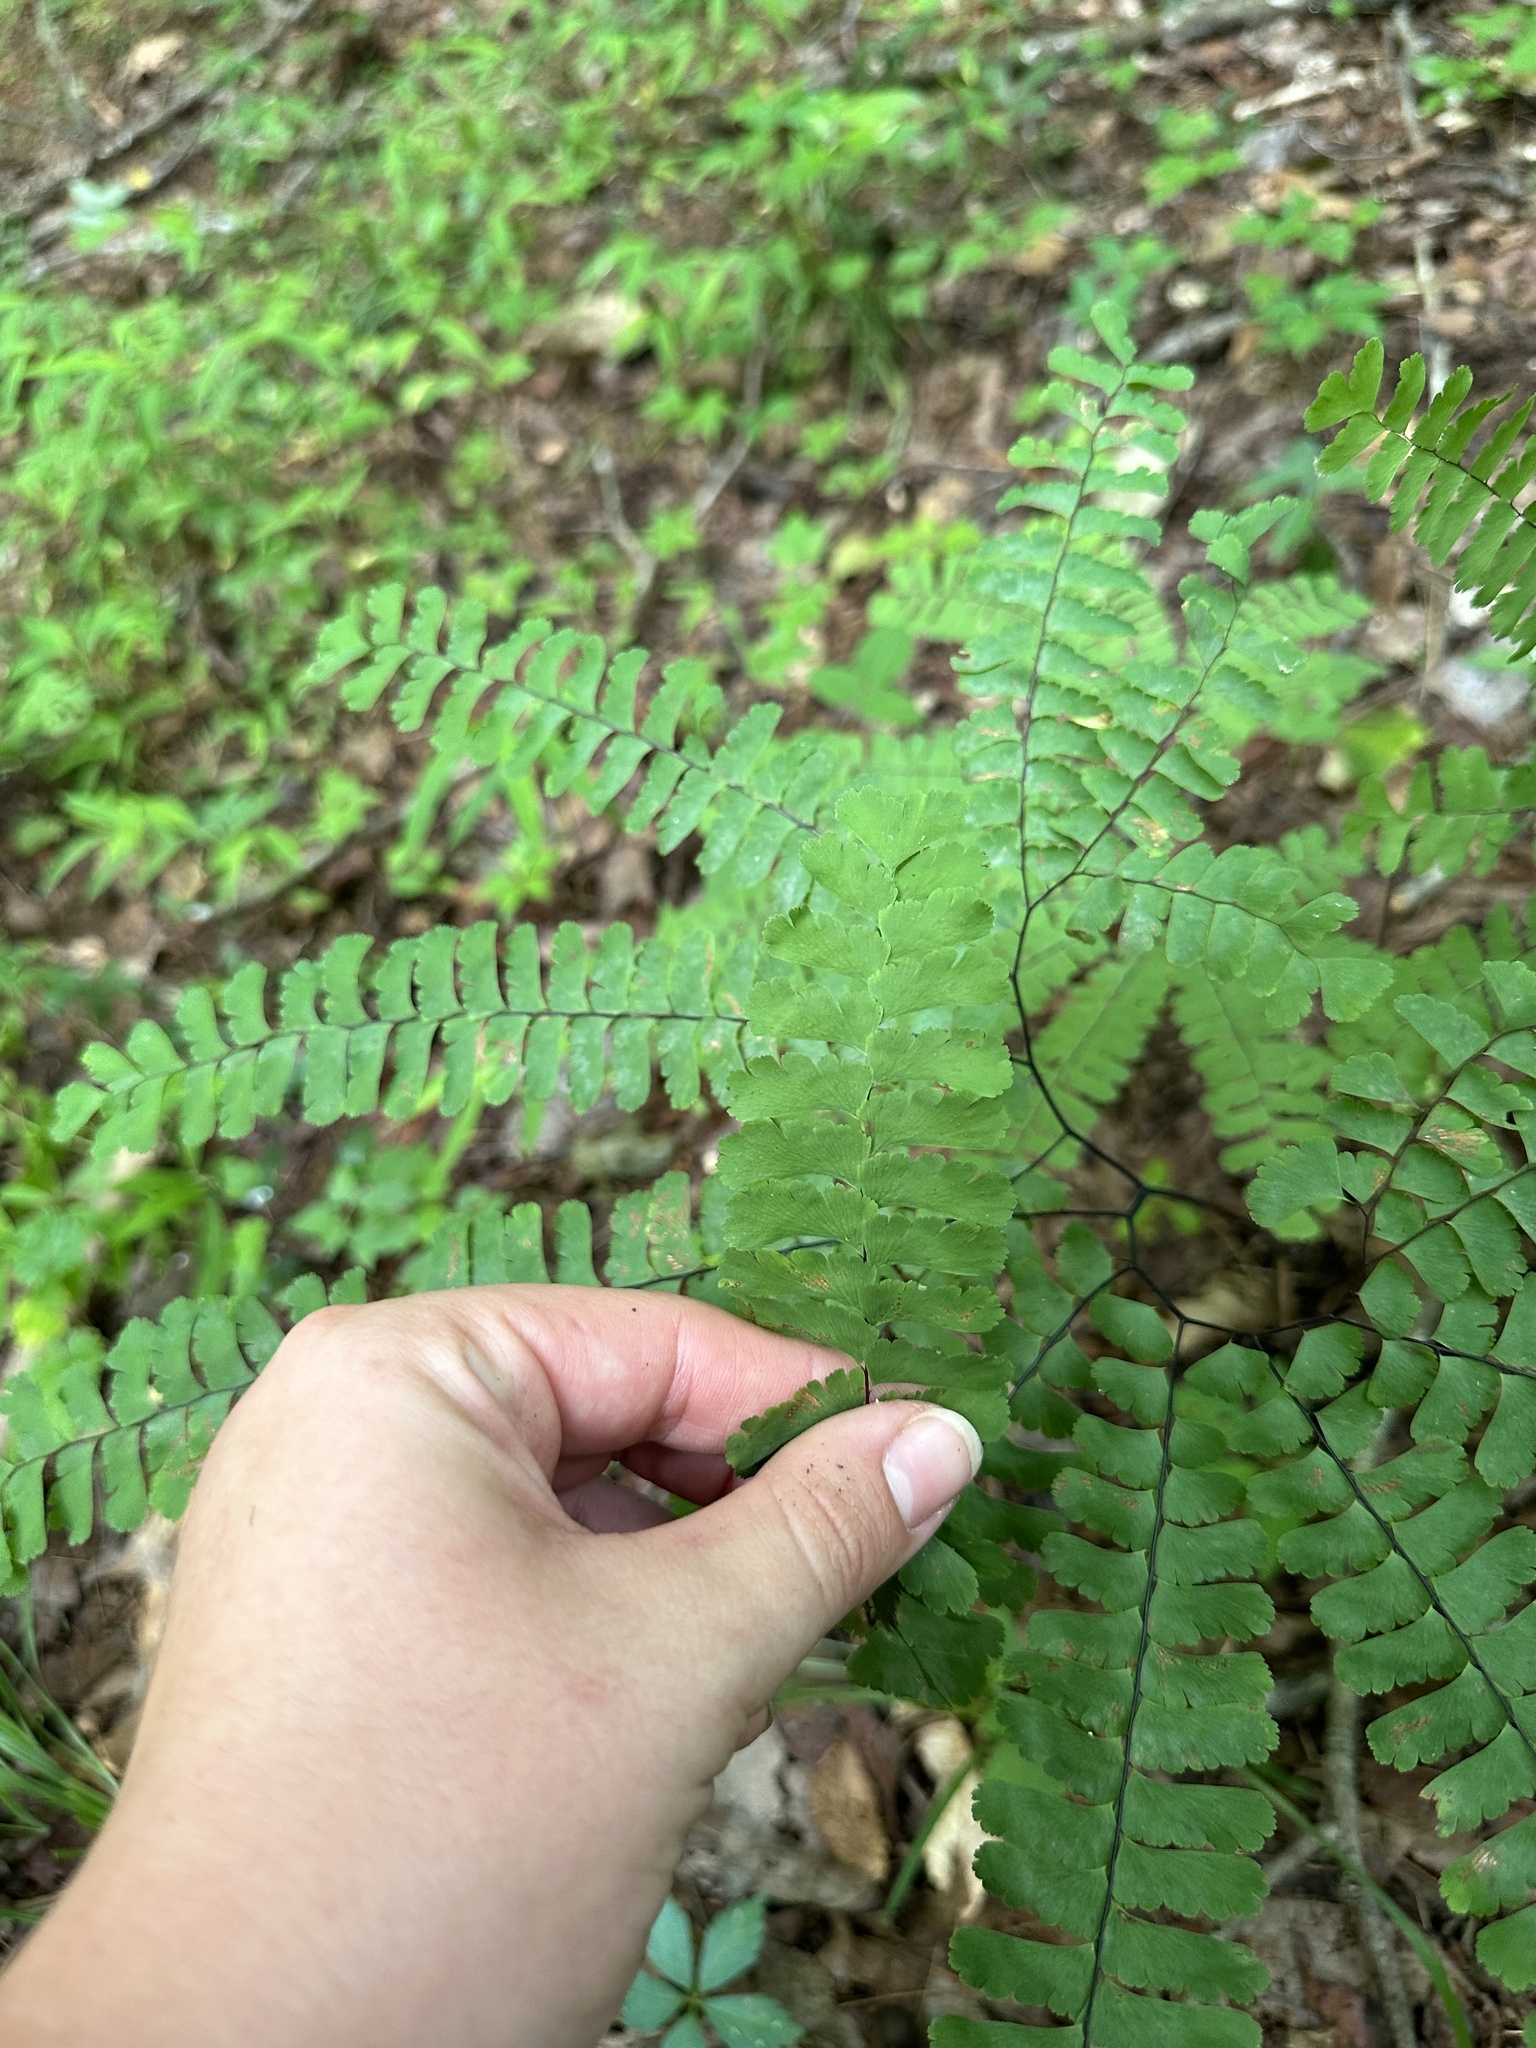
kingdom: Plantae
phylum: Tracheophyta
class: Polypodiopsida
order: Polypodiales
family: Pteridaceae
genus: Adiantum
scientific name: Adiantum pedatum
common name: Five-finger fern
